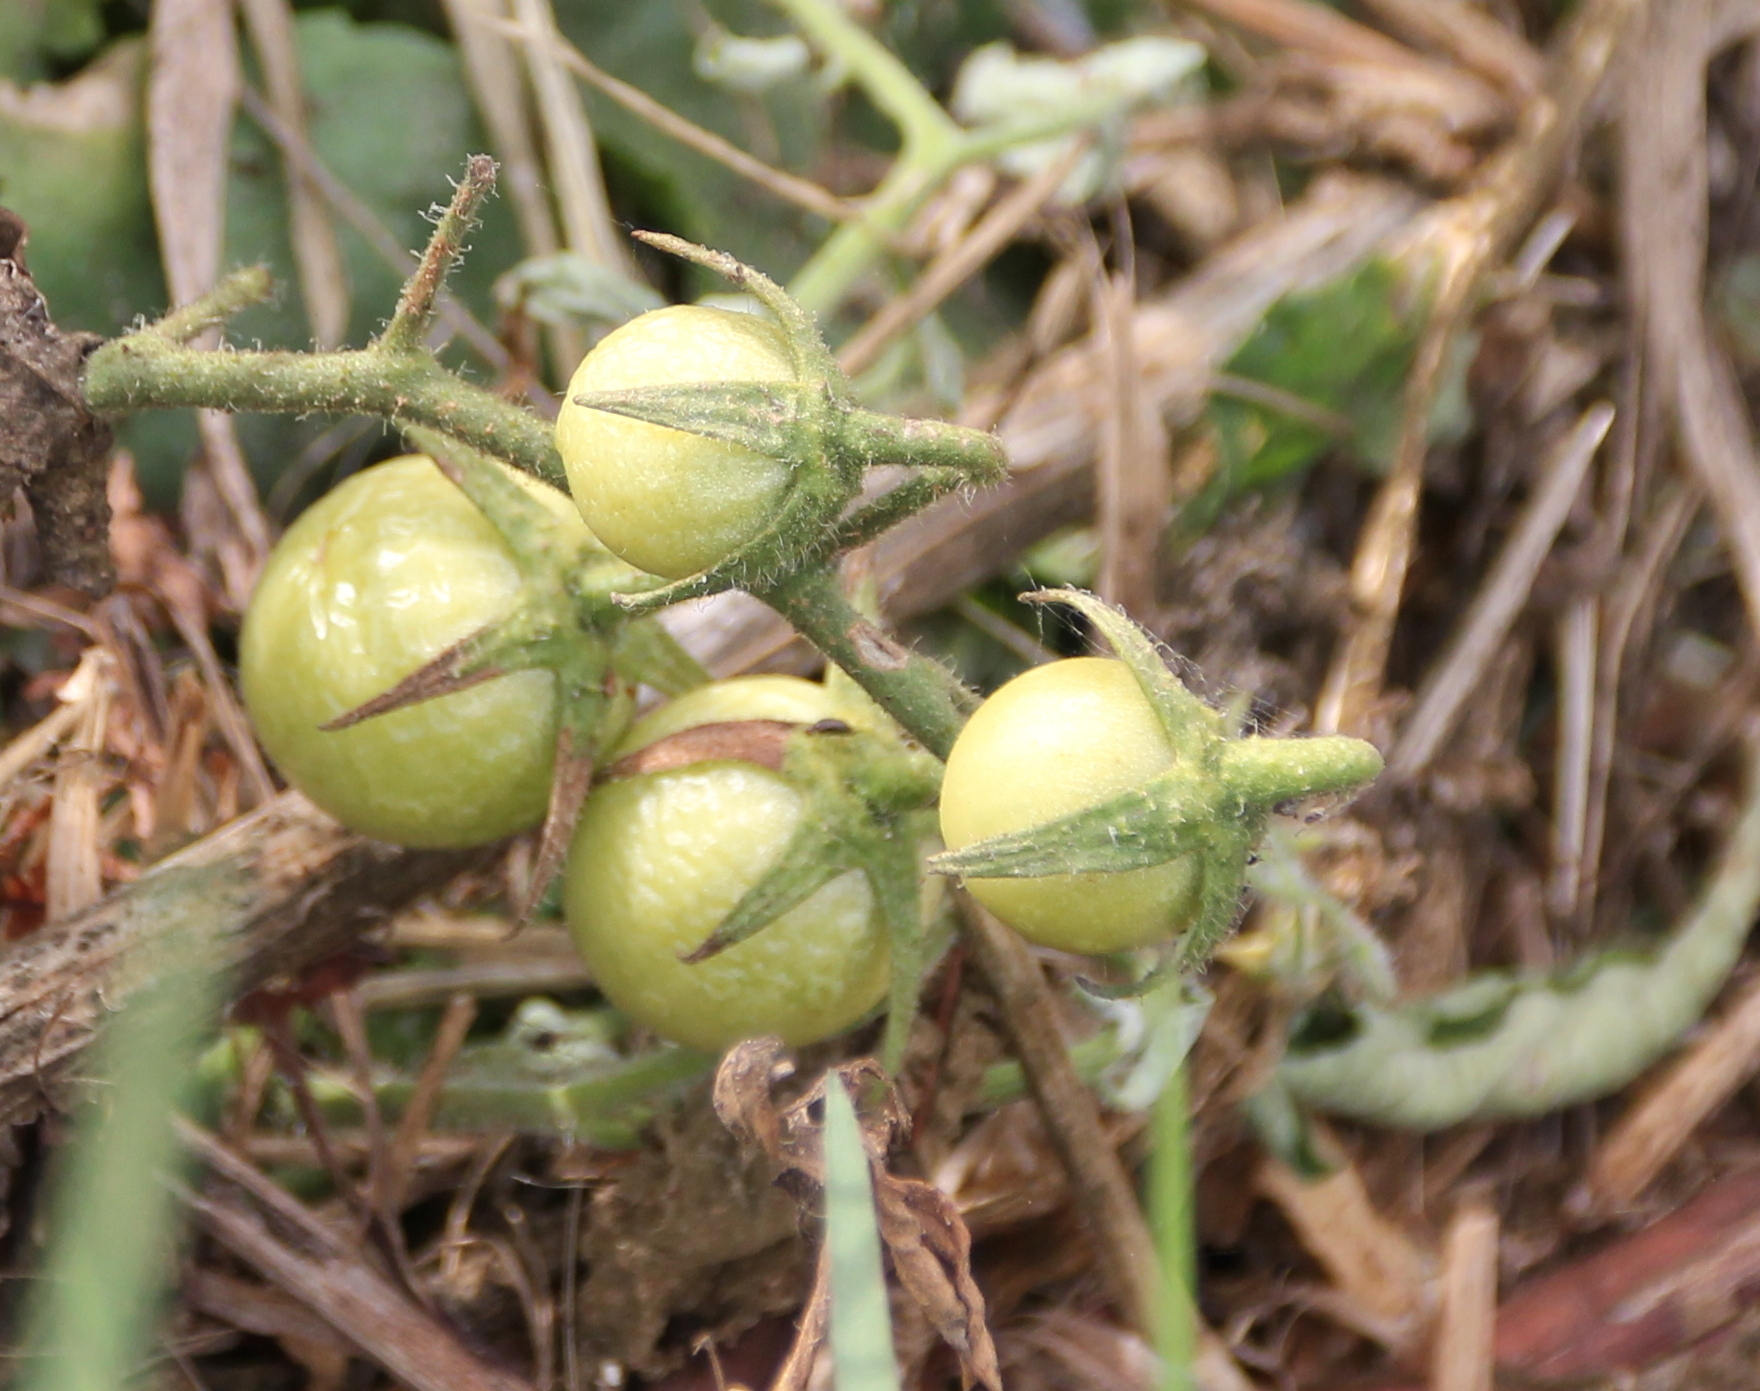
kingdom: Plantae
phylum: Tracheophyta
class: Magnoliopsida
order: Solanales
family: Solanaceae
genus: Solanum
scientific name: Solanum lycopersicum
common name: Garden tomato
